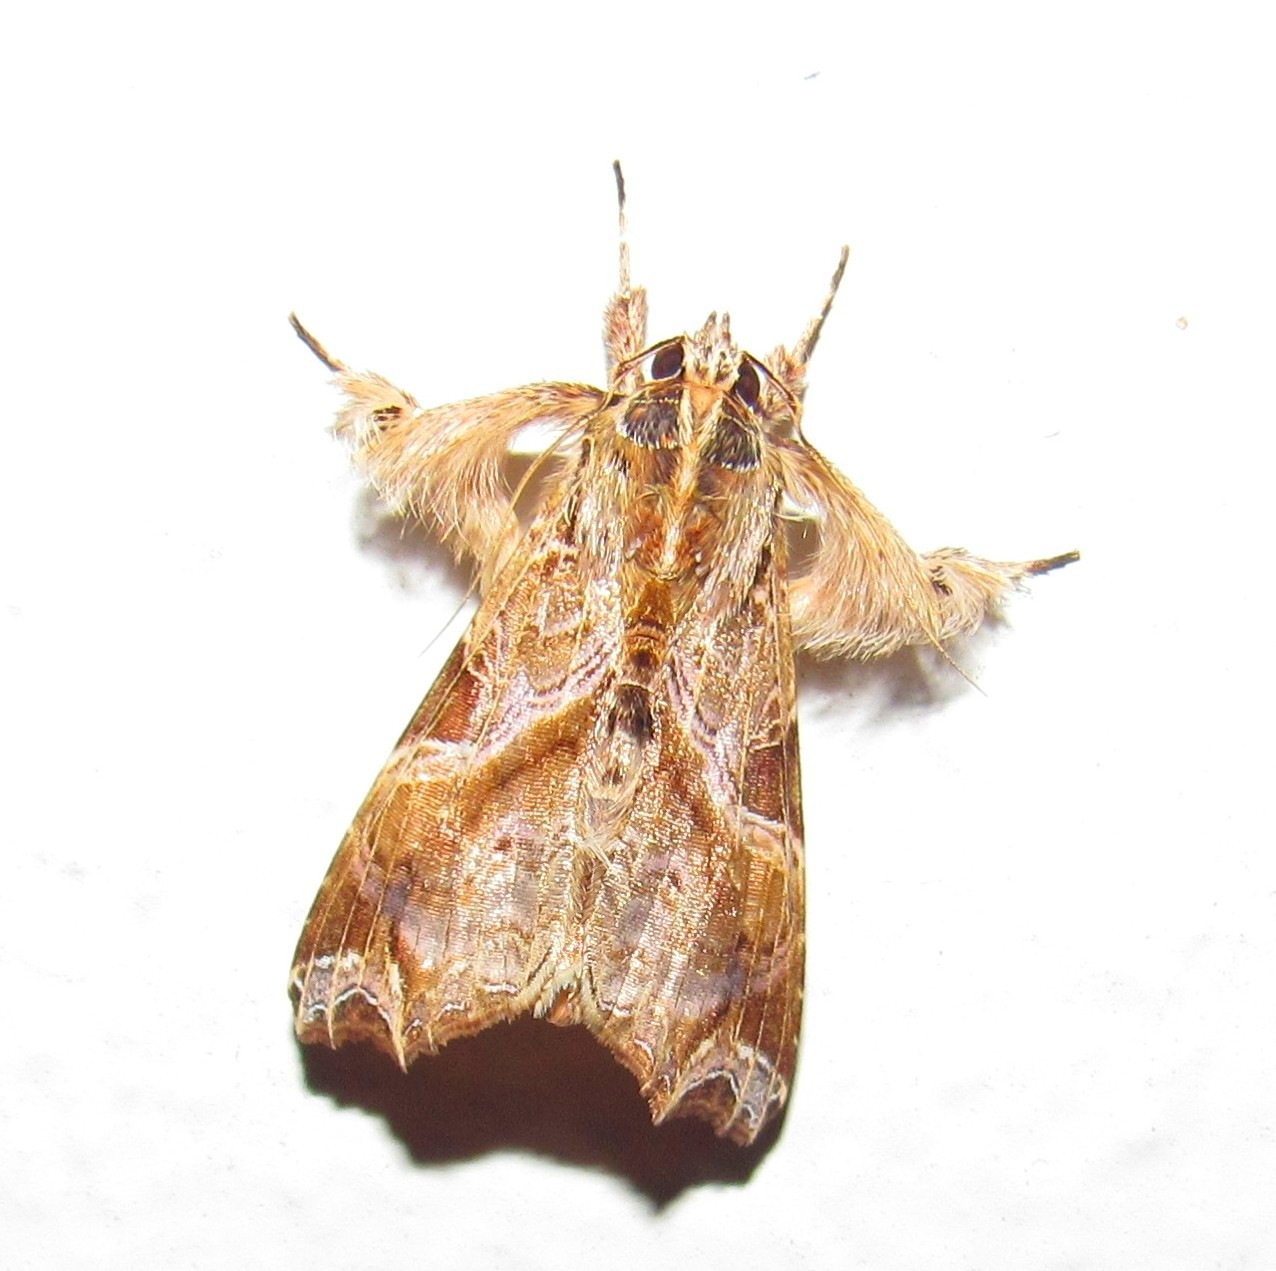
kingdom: Animalia
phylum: Arthropoda
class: Insecta
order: Lepidoptera
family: Noctuidae
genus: Callopistria
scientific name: Callopistria floridensis
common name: Florida fern moth
